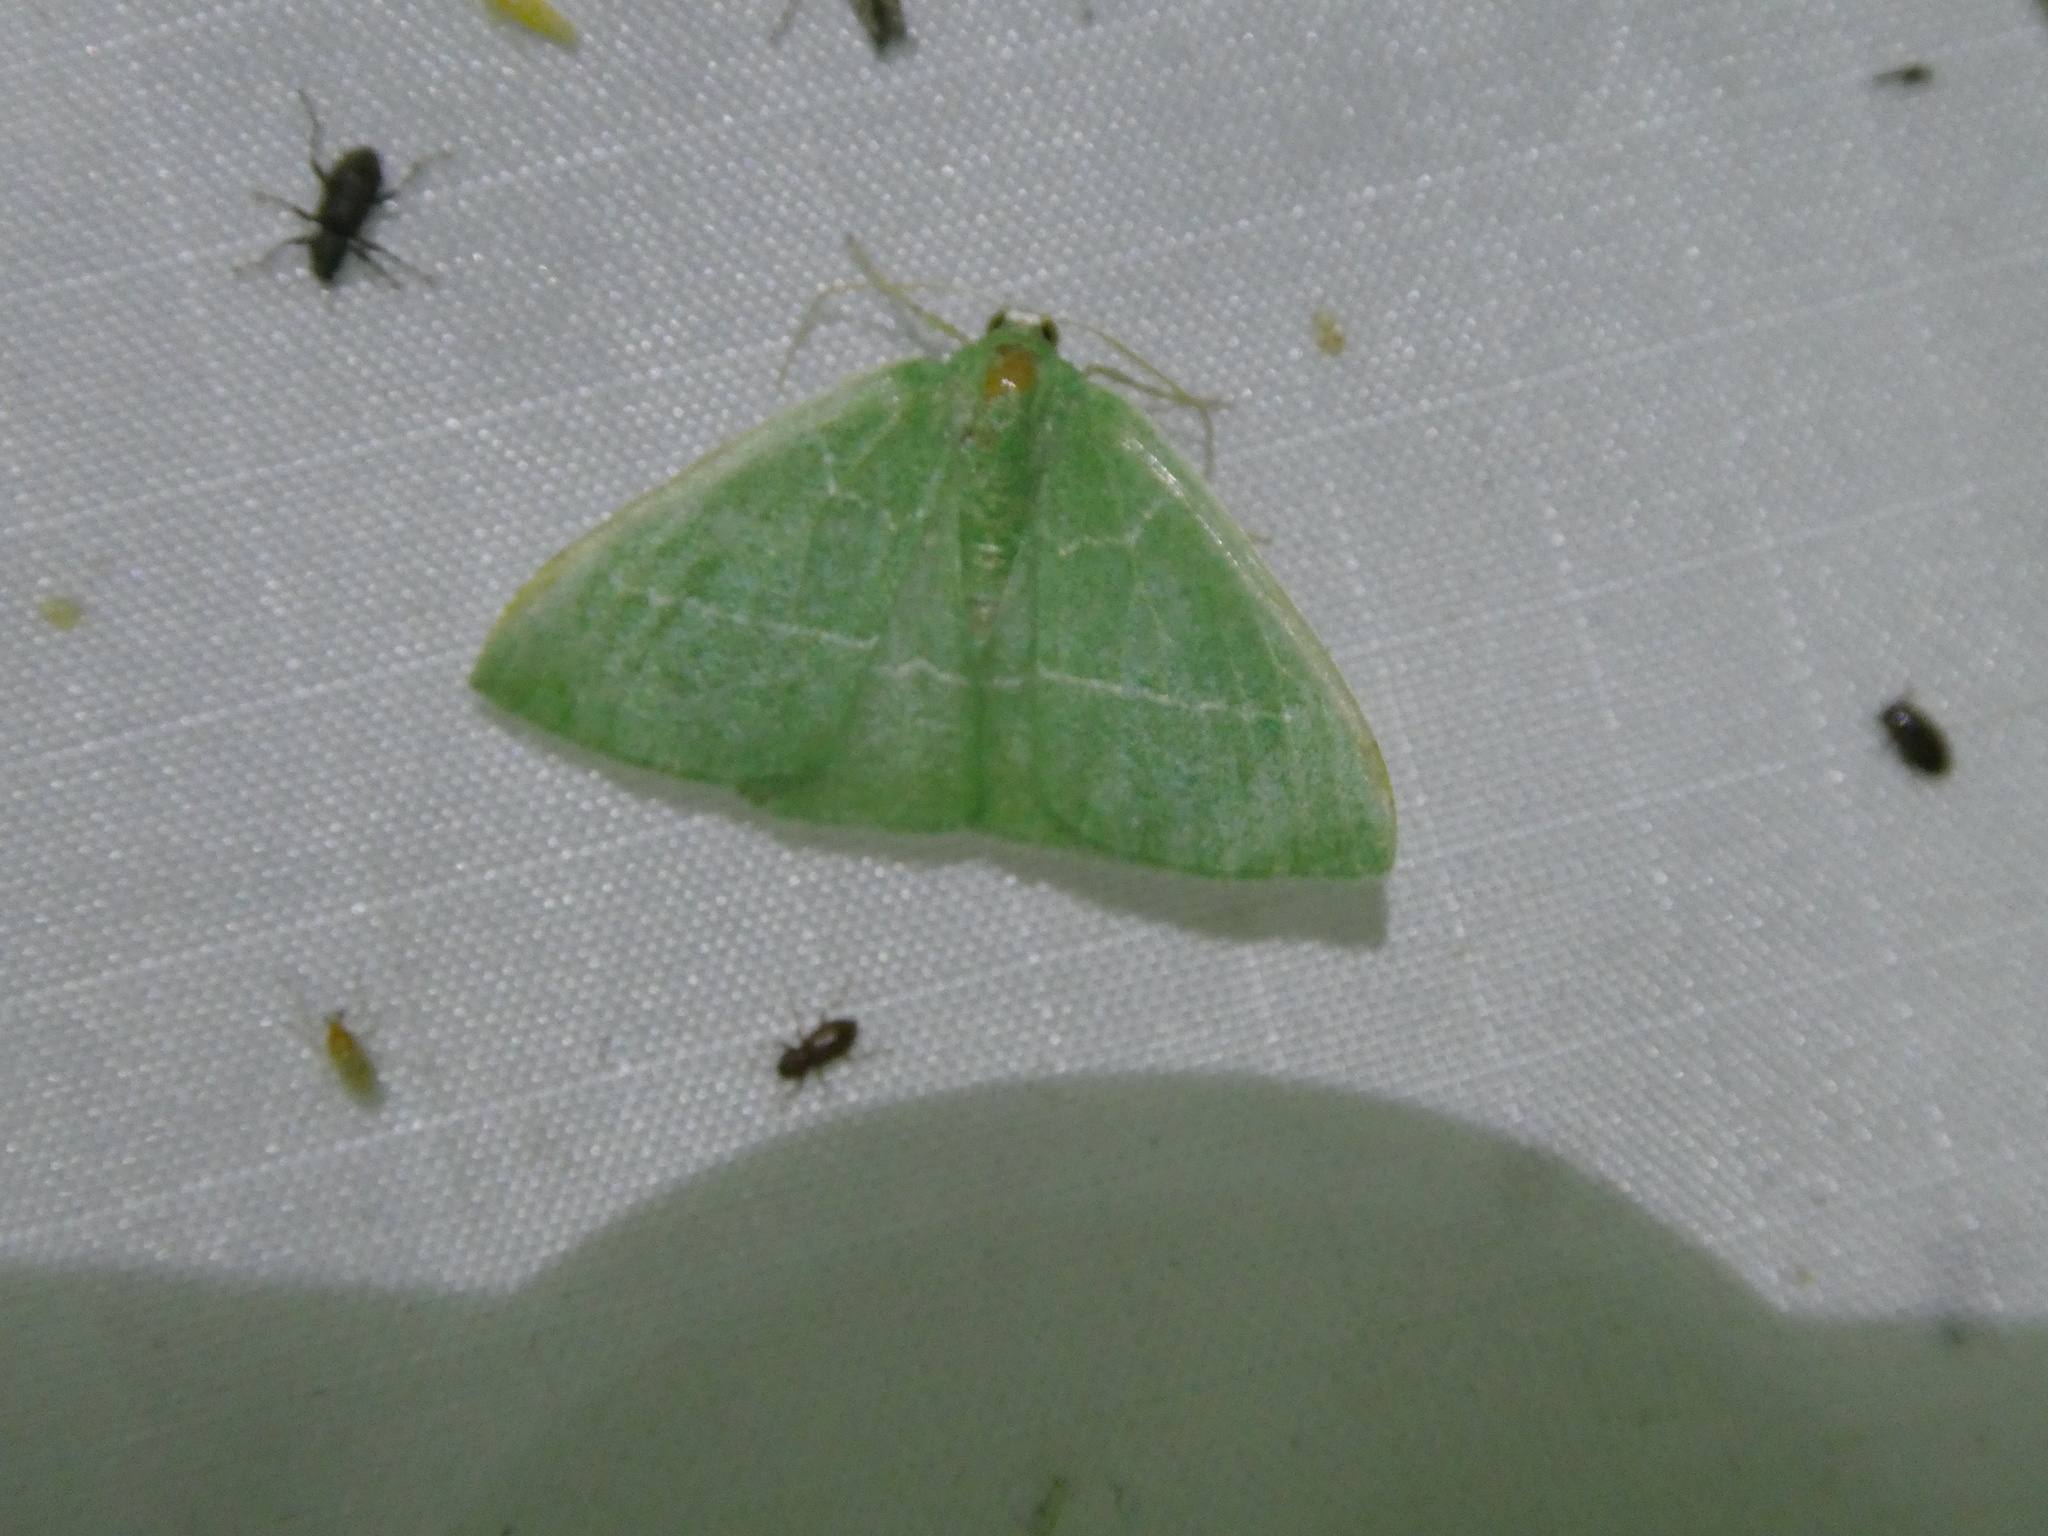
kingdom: Animalia
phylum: Arthropoda
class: Insecta
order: Lepidoptera
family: Geometridae
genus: Nemoria
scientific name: Nemoria zygotaria
